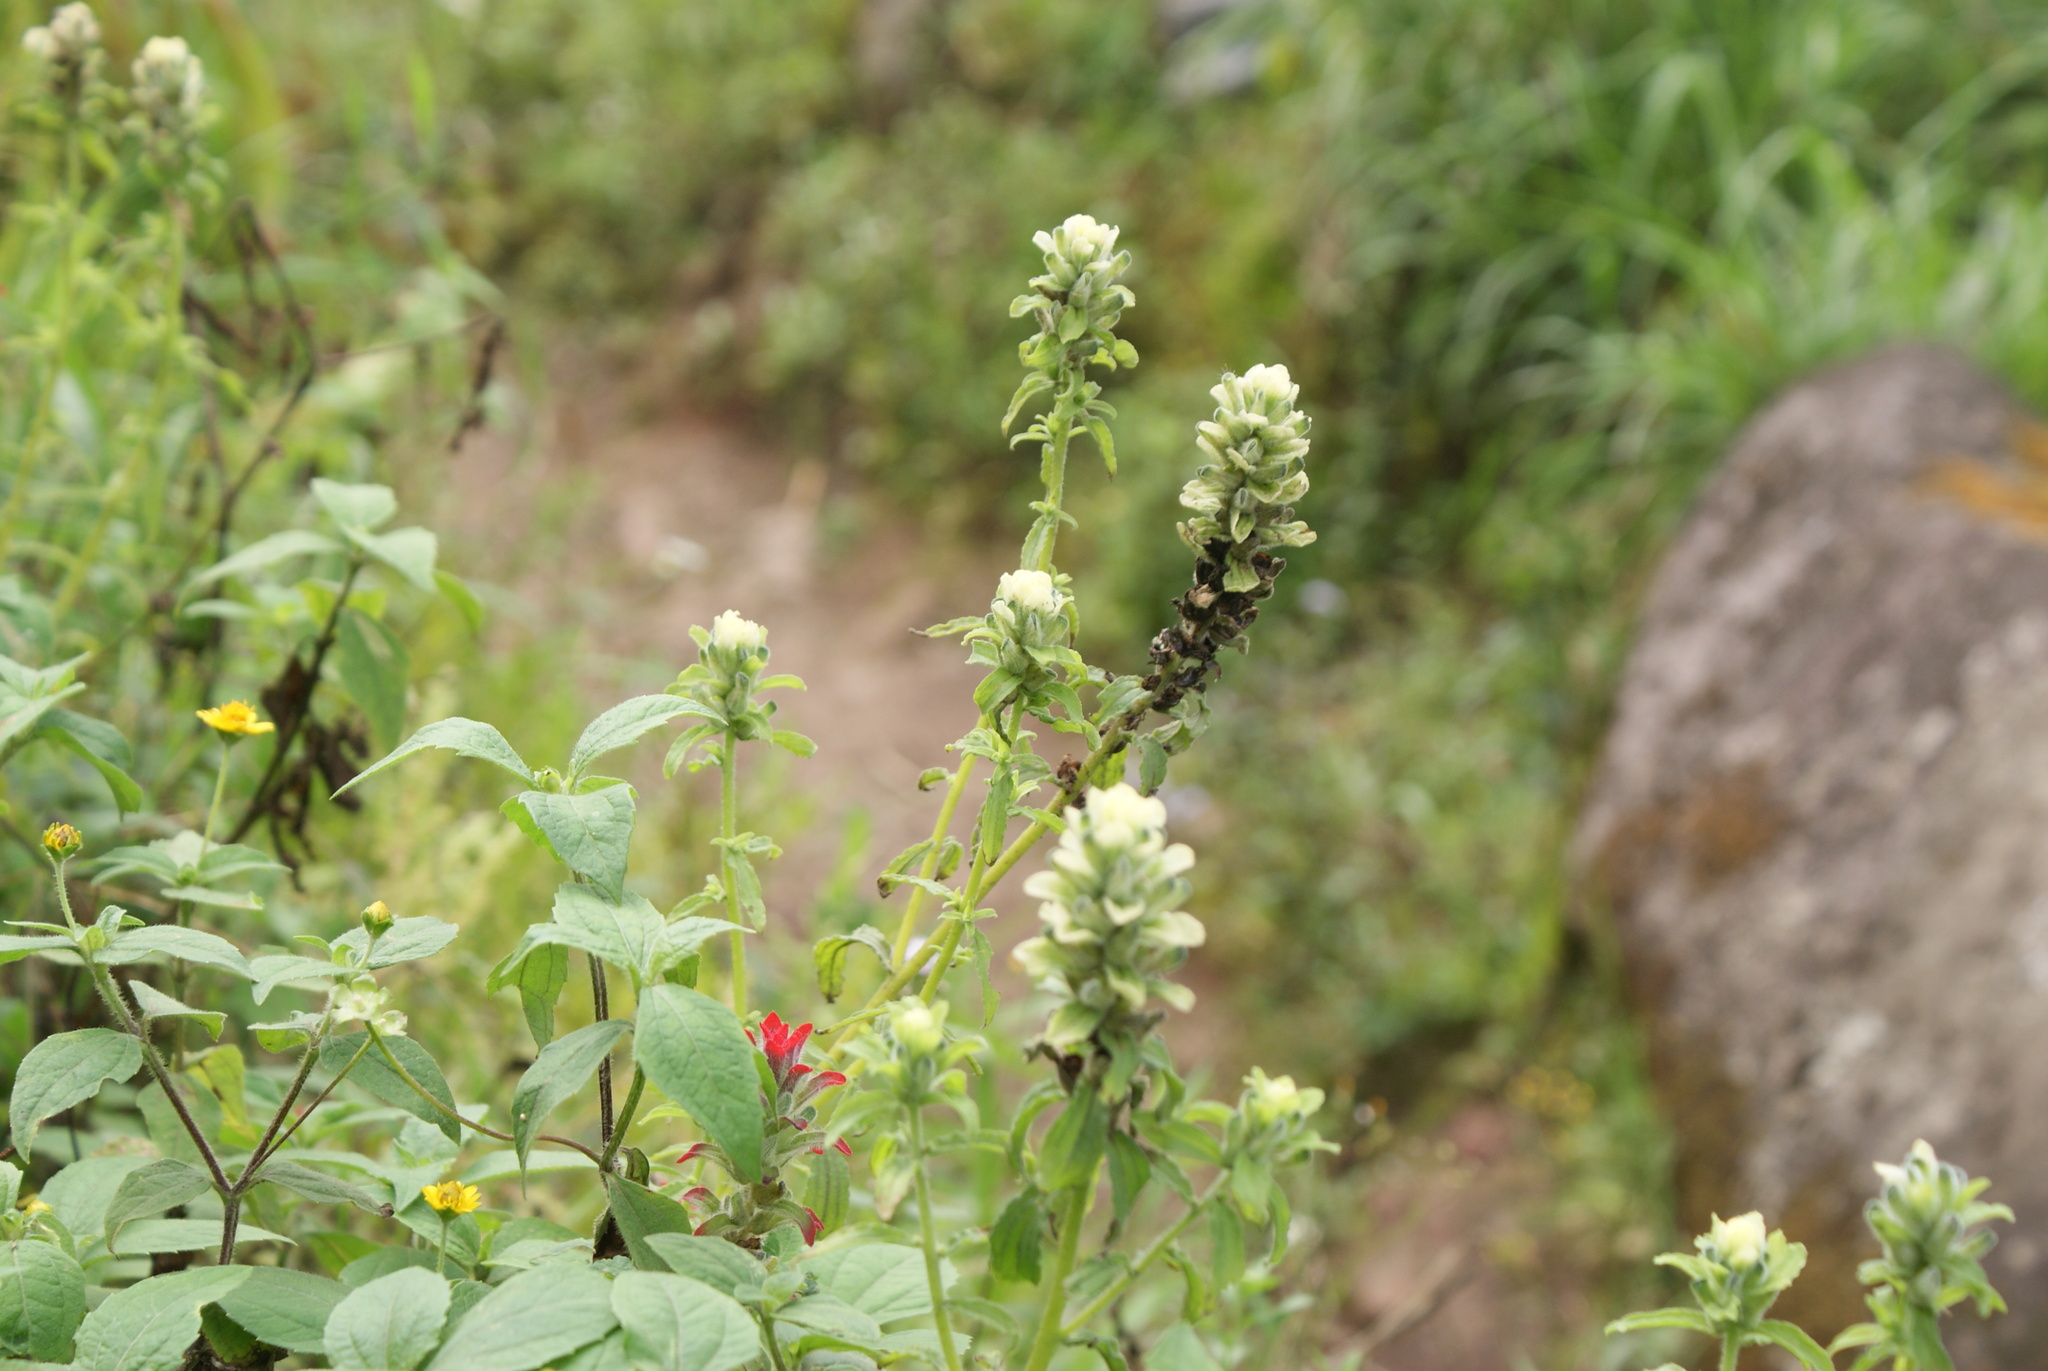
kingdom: Plantae
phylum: Tracheophyta
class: Magnoliopsida
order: Lamiales
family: Orobanchaceae
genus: Castilleja
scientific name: Castilleja arvensis
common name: Indian paintbrush
